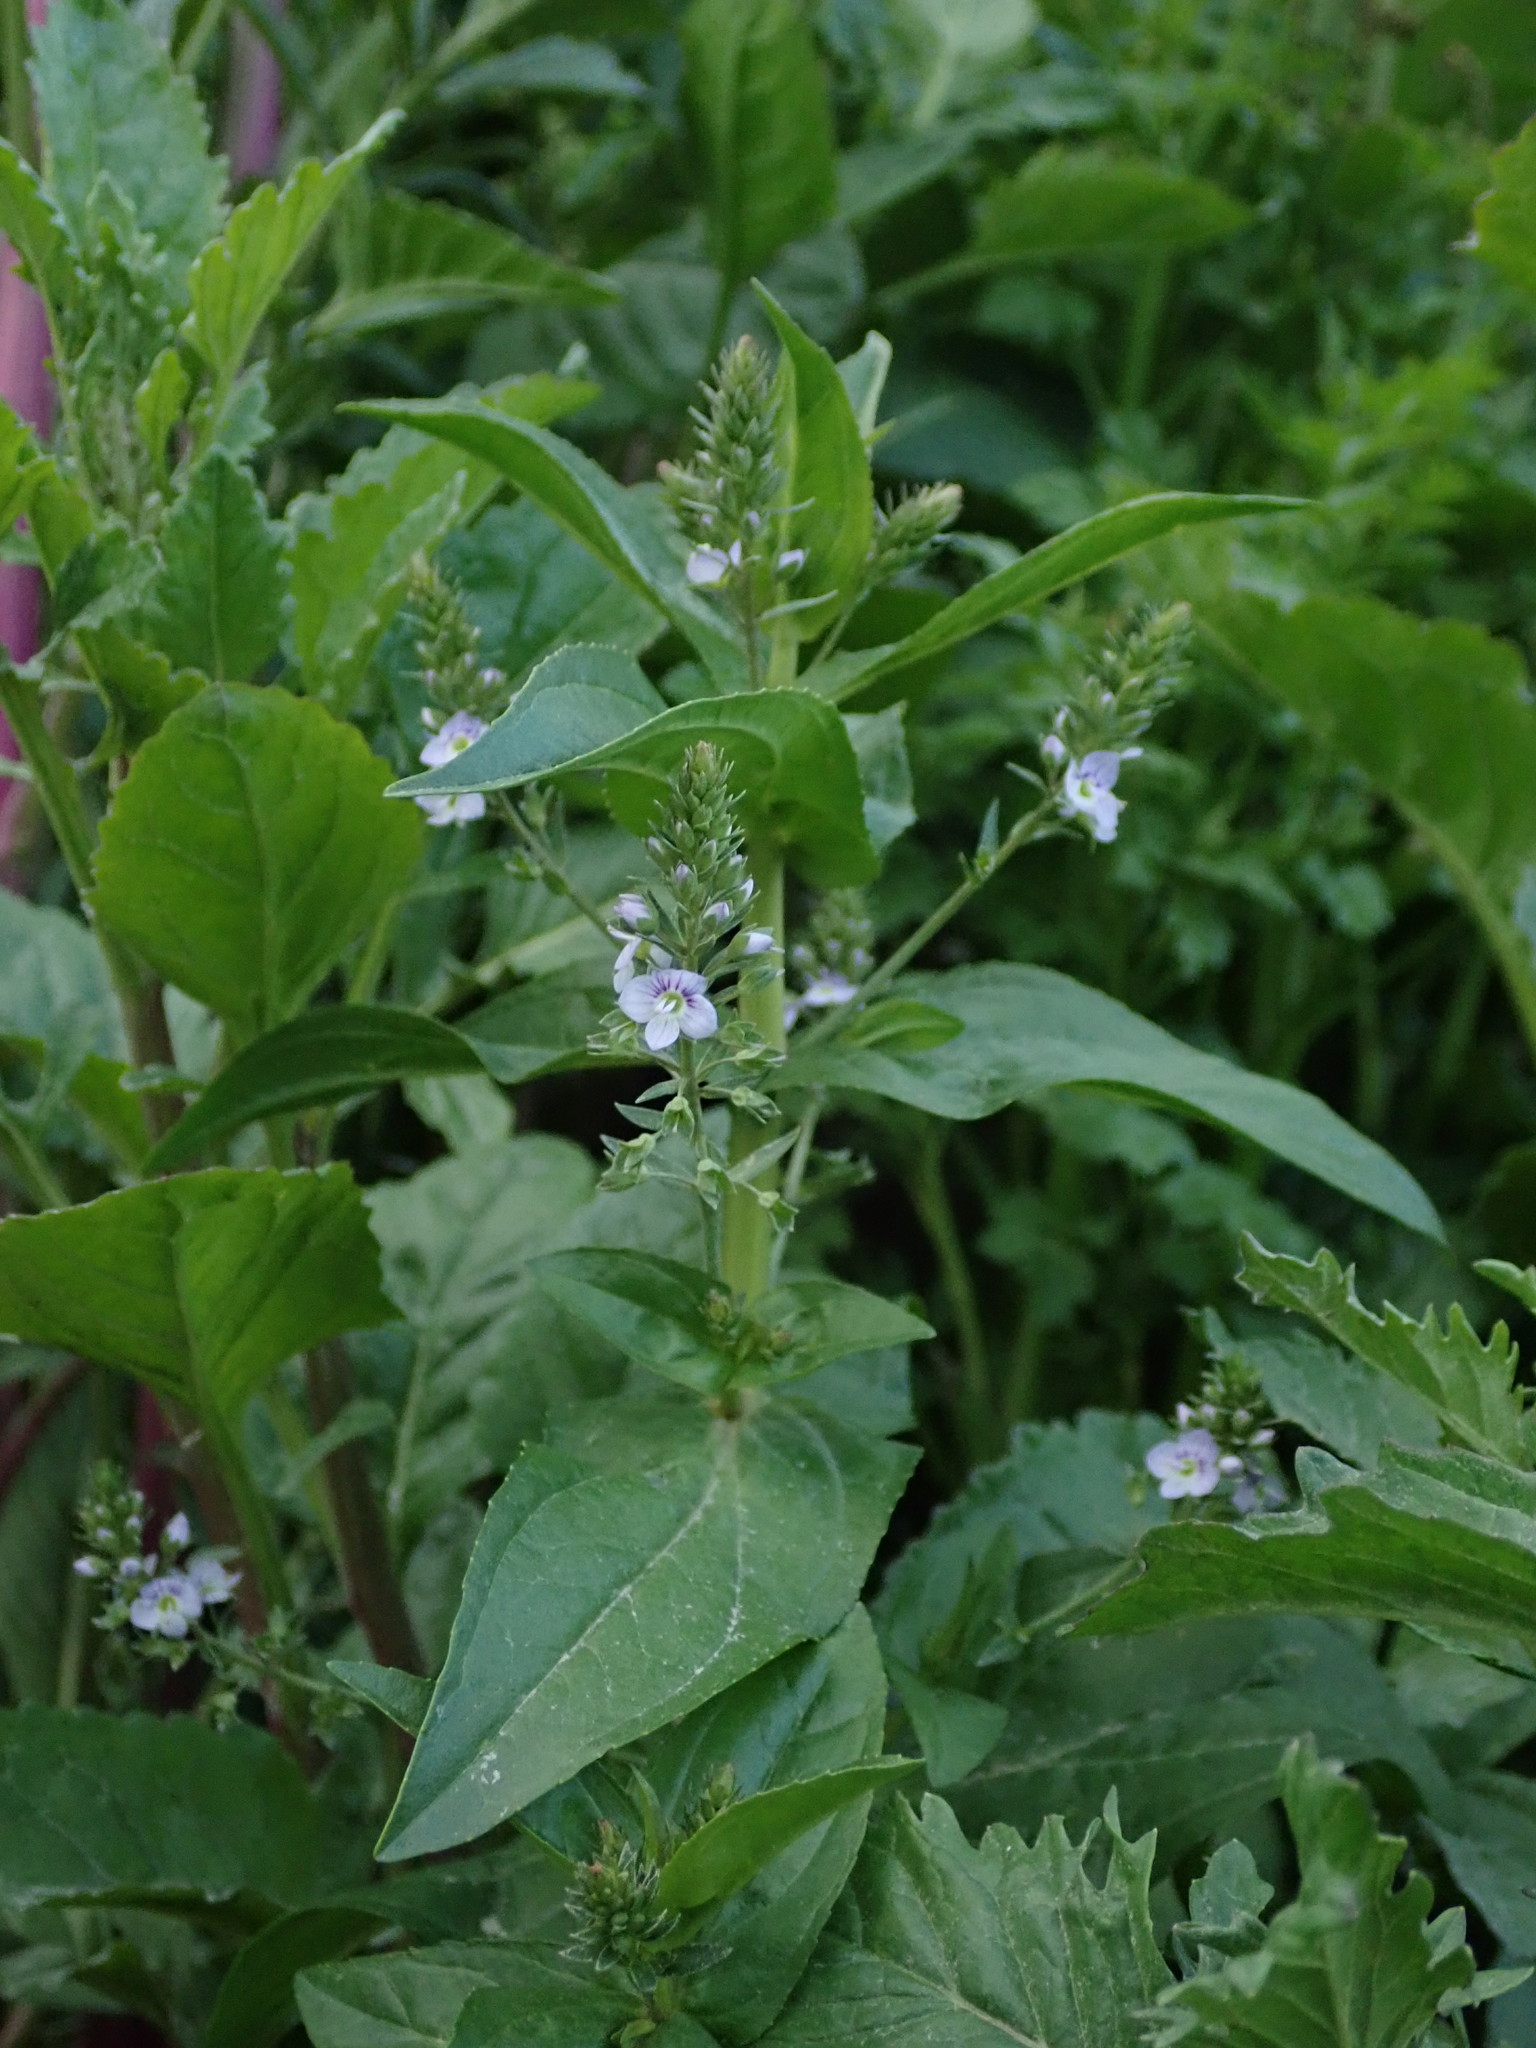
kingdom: Plantae
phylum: Tracheophyta
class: Magnoliopsida
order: Lamiales
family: Plantaginaceae
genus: Veronica
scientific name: Veronica anagallis-aquatica
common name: Water speedwell
